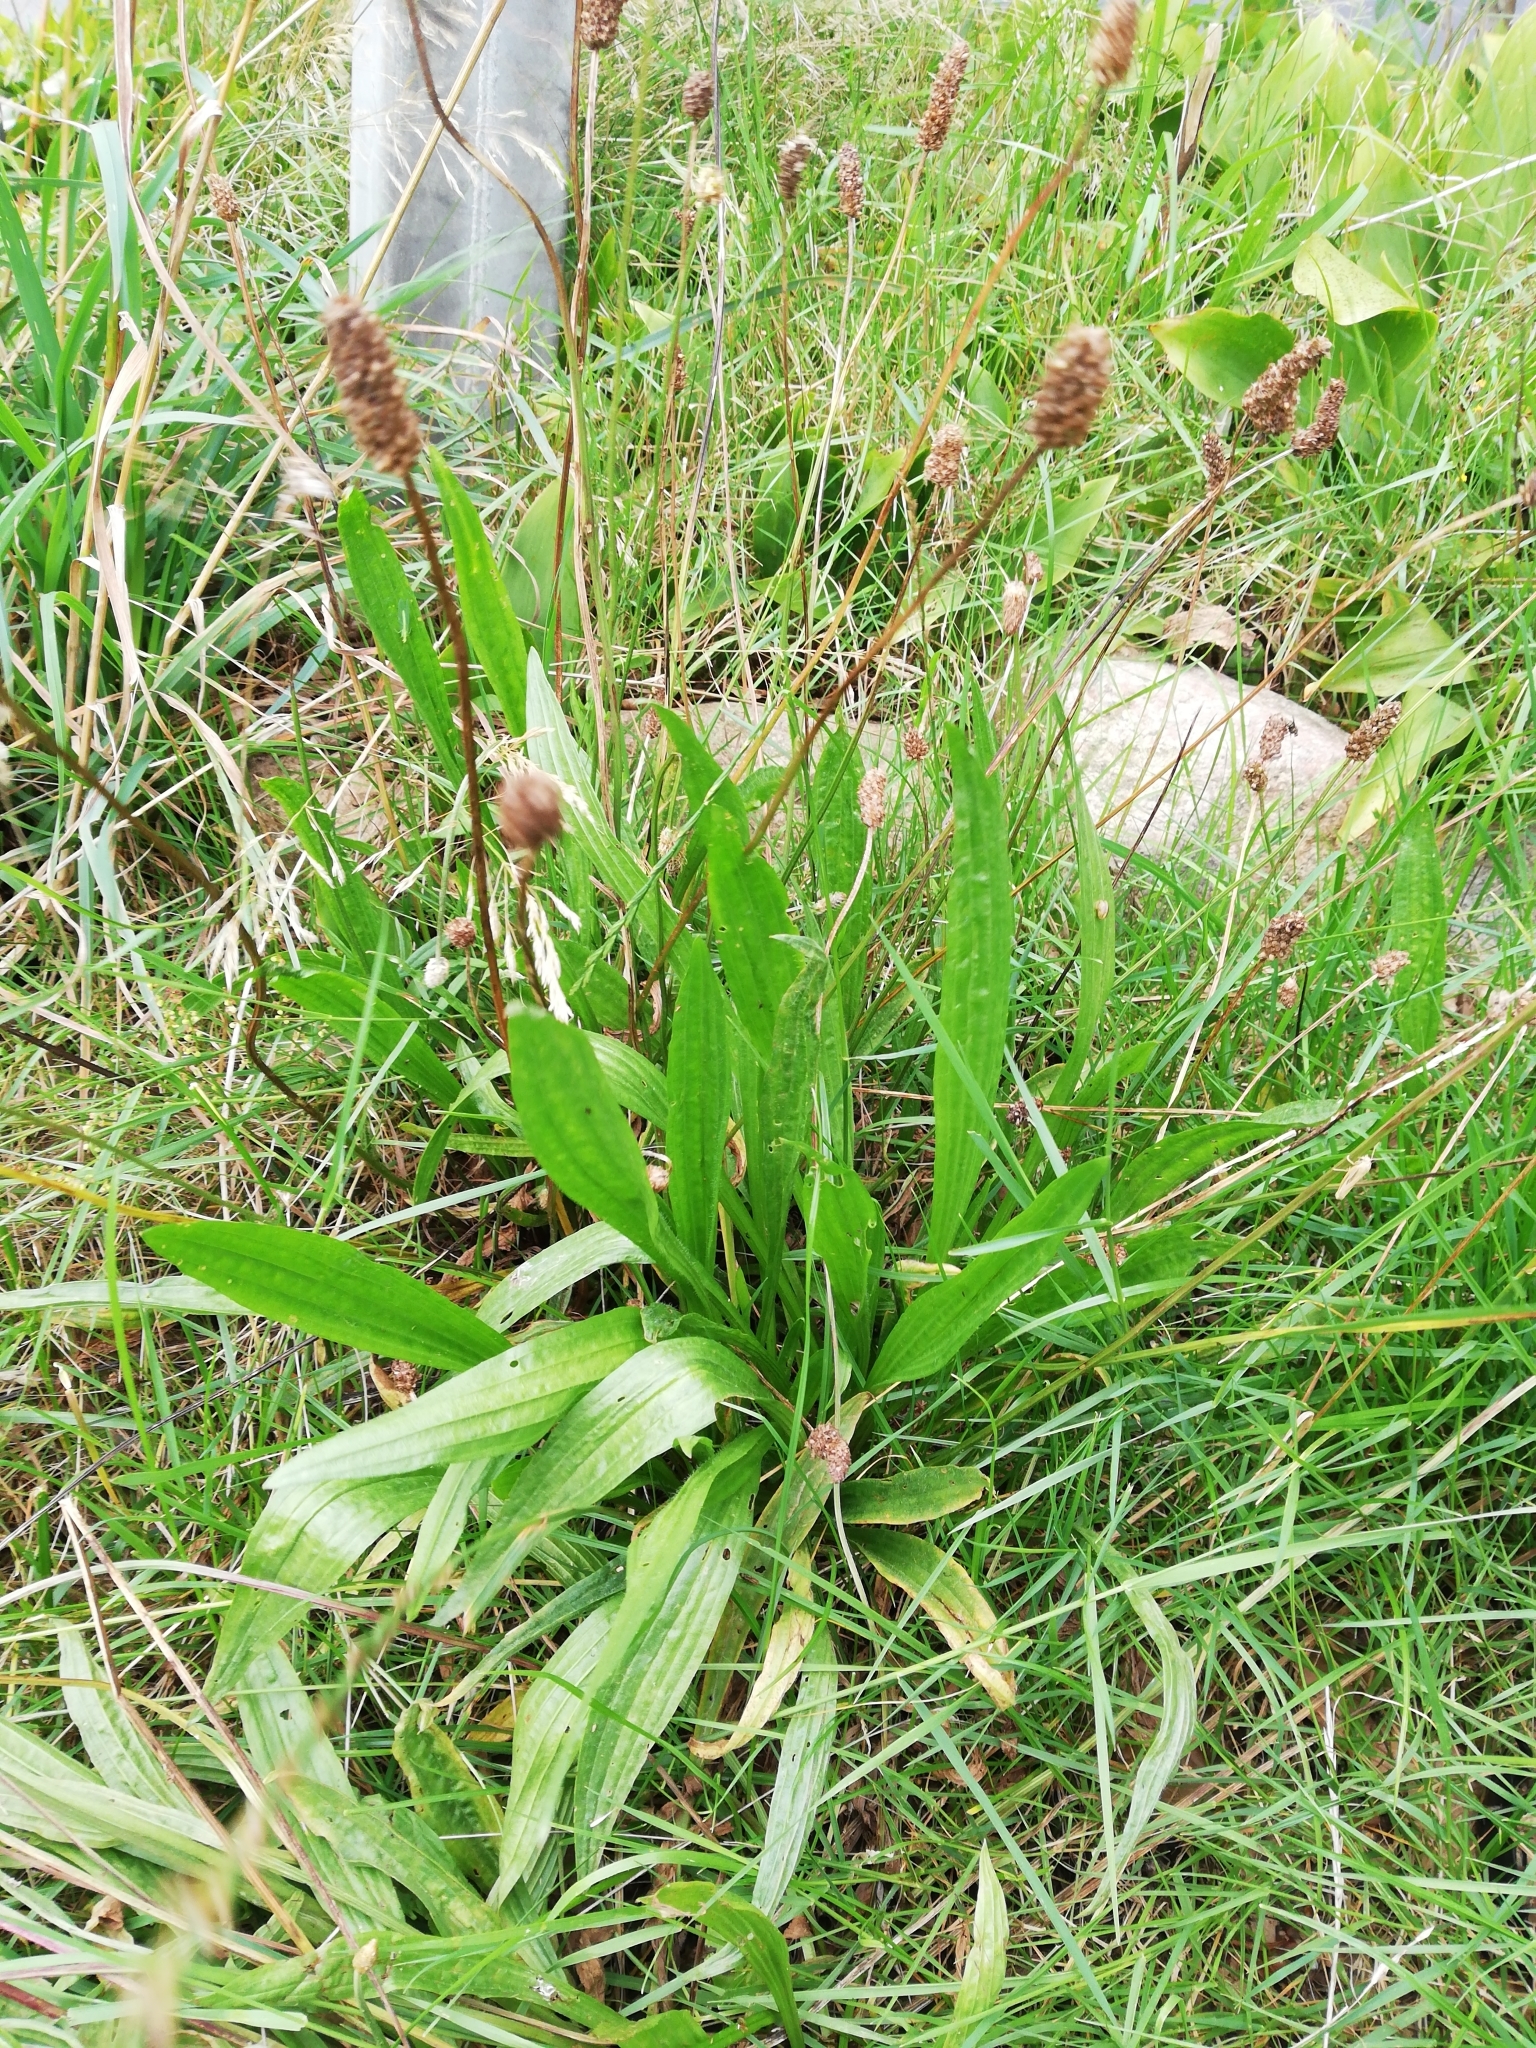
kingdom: Plantae
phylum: Tracheophyta
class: Magnoliopsida
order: Lamiales
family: Plantaginaceae
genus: Plantago
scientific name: Plantago lanceolata
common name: Ribwort plantain
